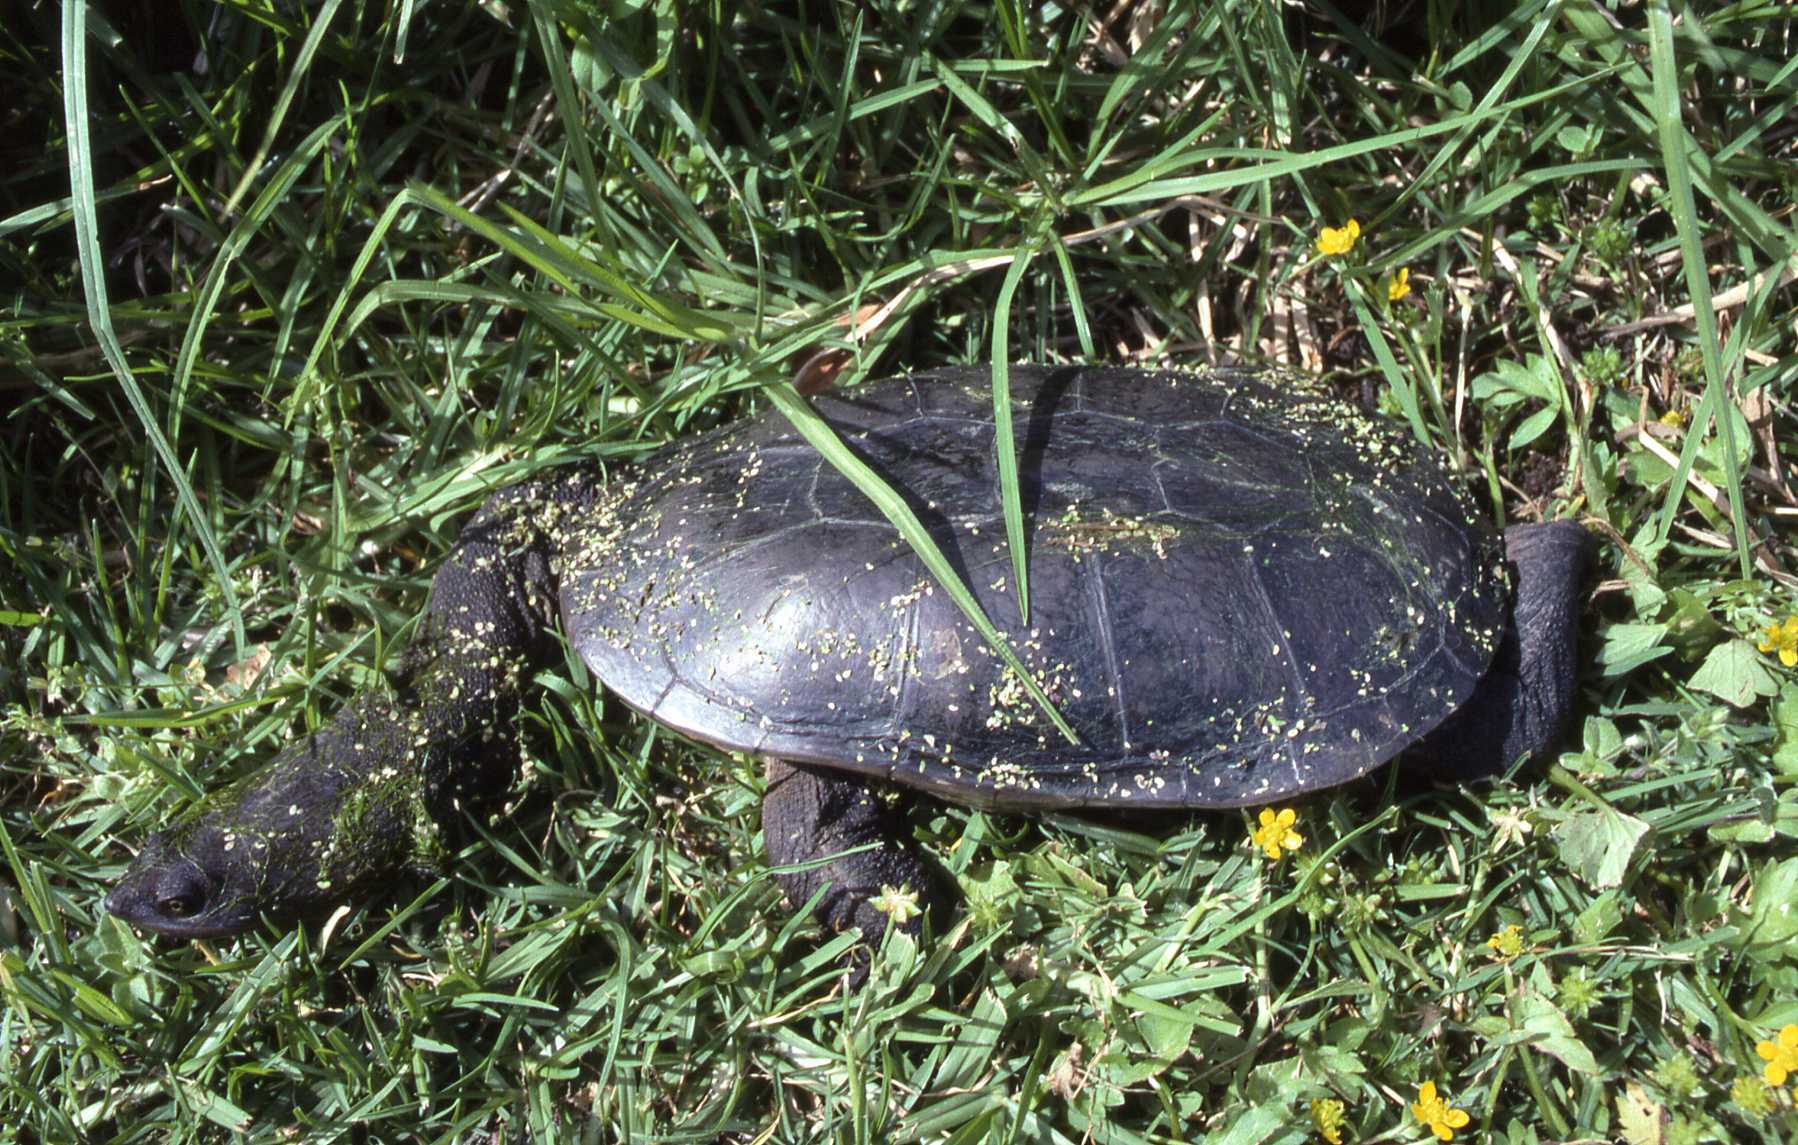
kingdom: Animalia
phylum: Chordata
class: Testudines
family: Chelidae
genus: Chelodina
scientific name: Chelodina oblonga
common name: Northern snake-necked turtle
